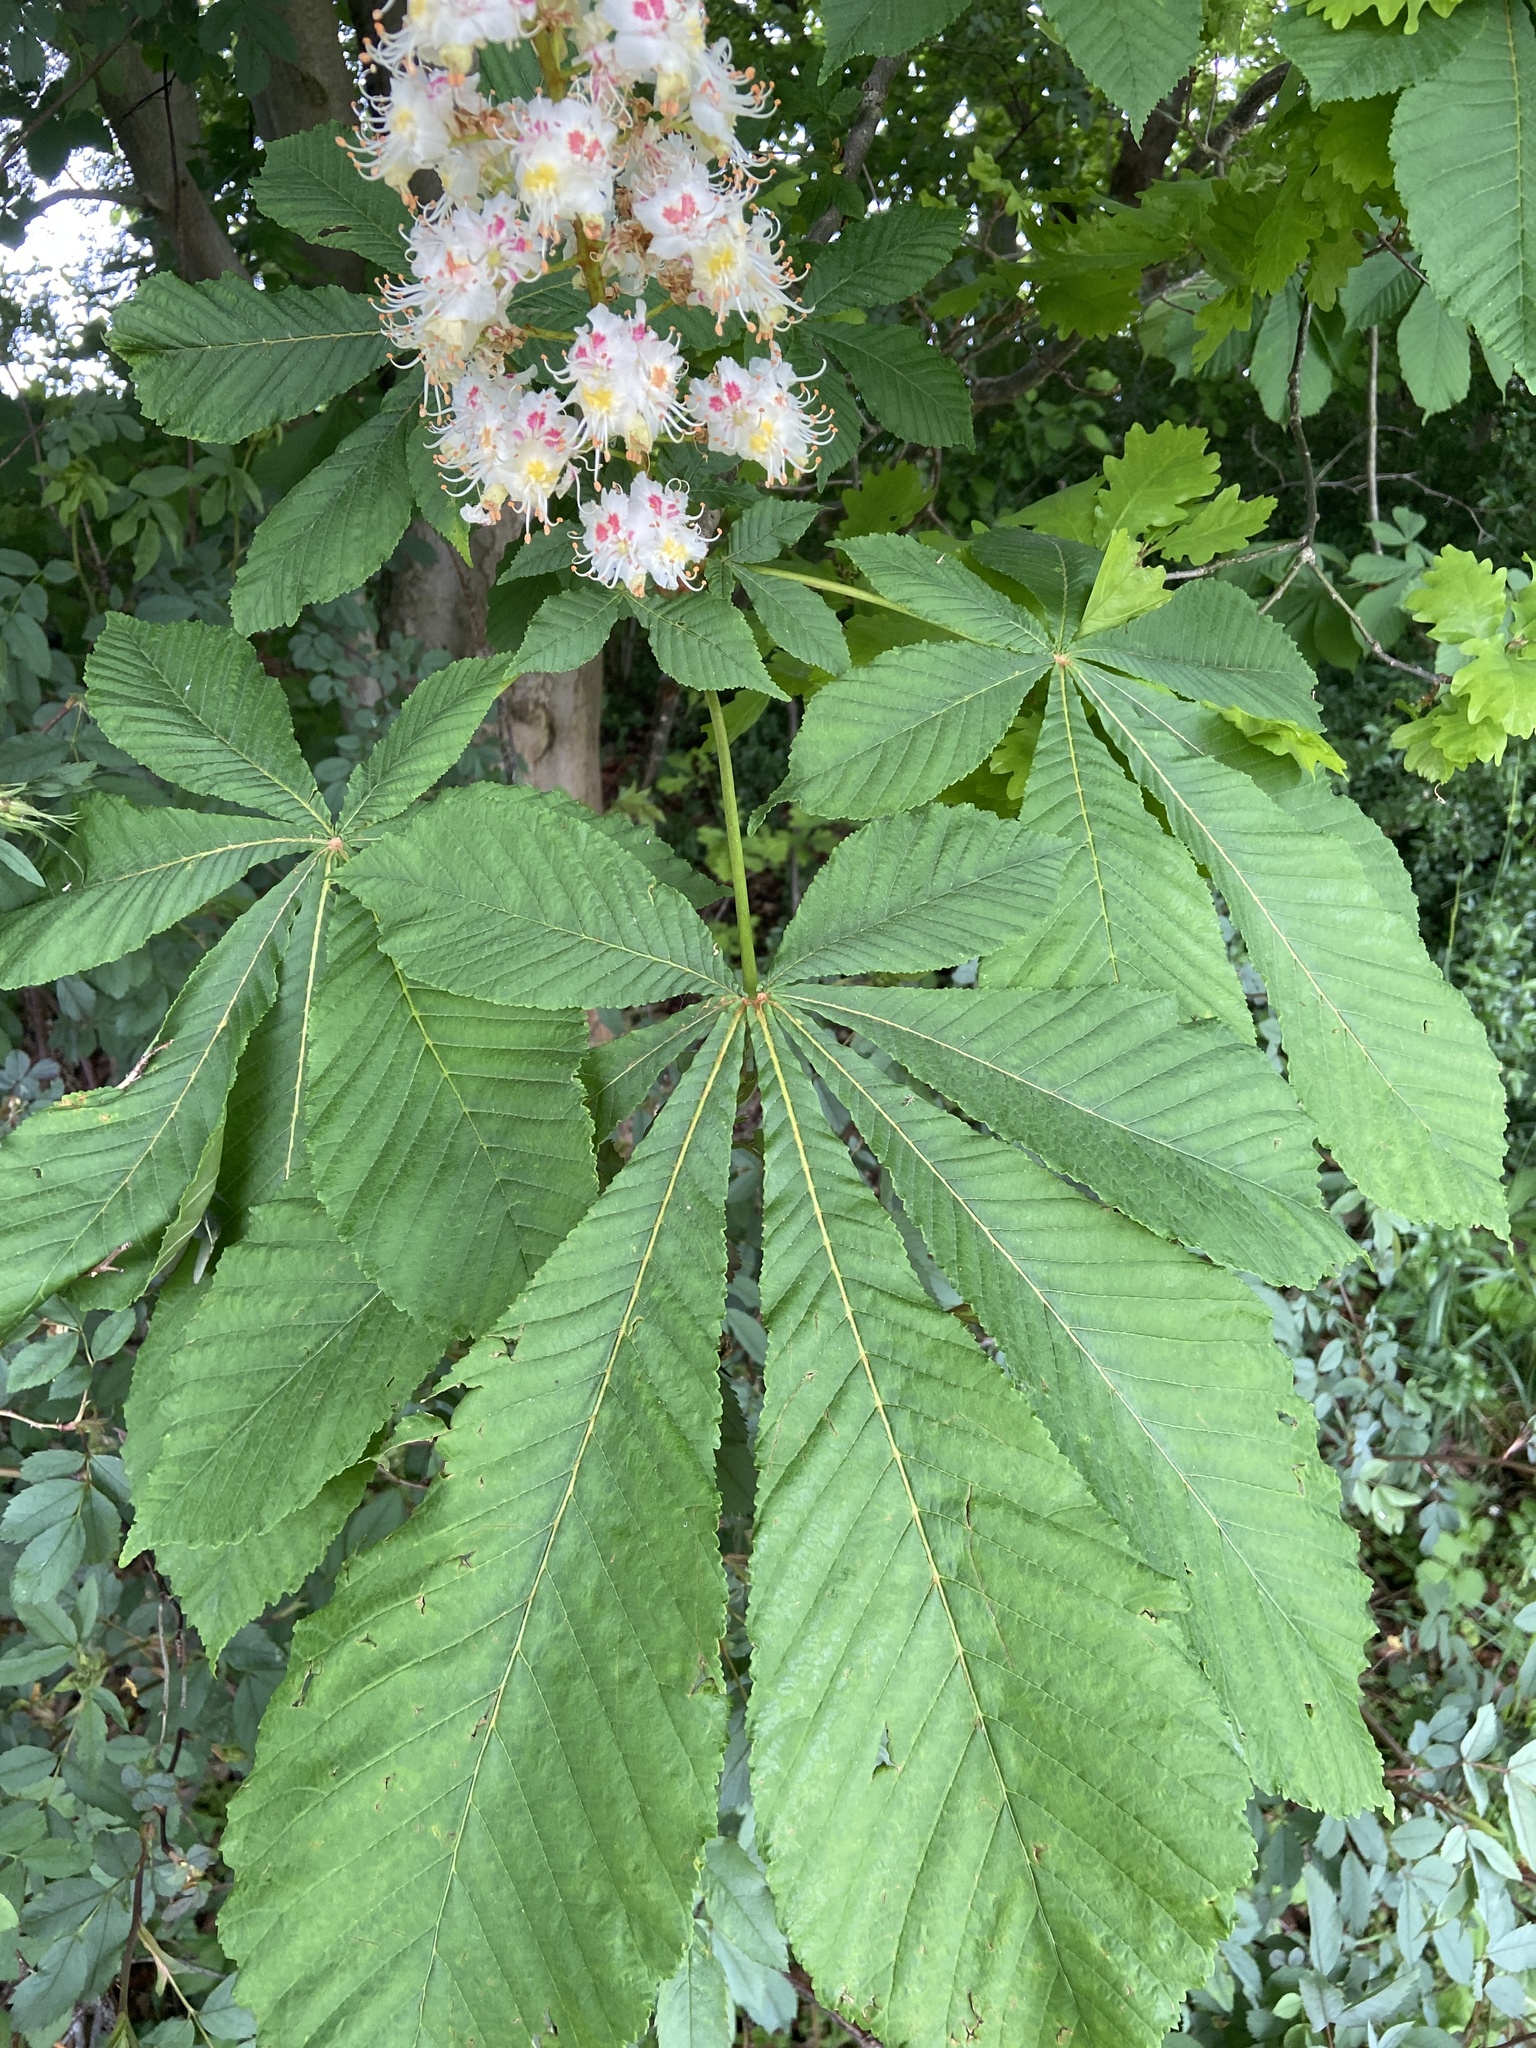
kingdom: Animalia
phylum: Arthropoda
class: Insecta
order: Lepidoptera
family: Gracillariidae
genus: Cameraria
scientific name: Cameraria ohridella
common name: Horse-chestnut leaf-miner
